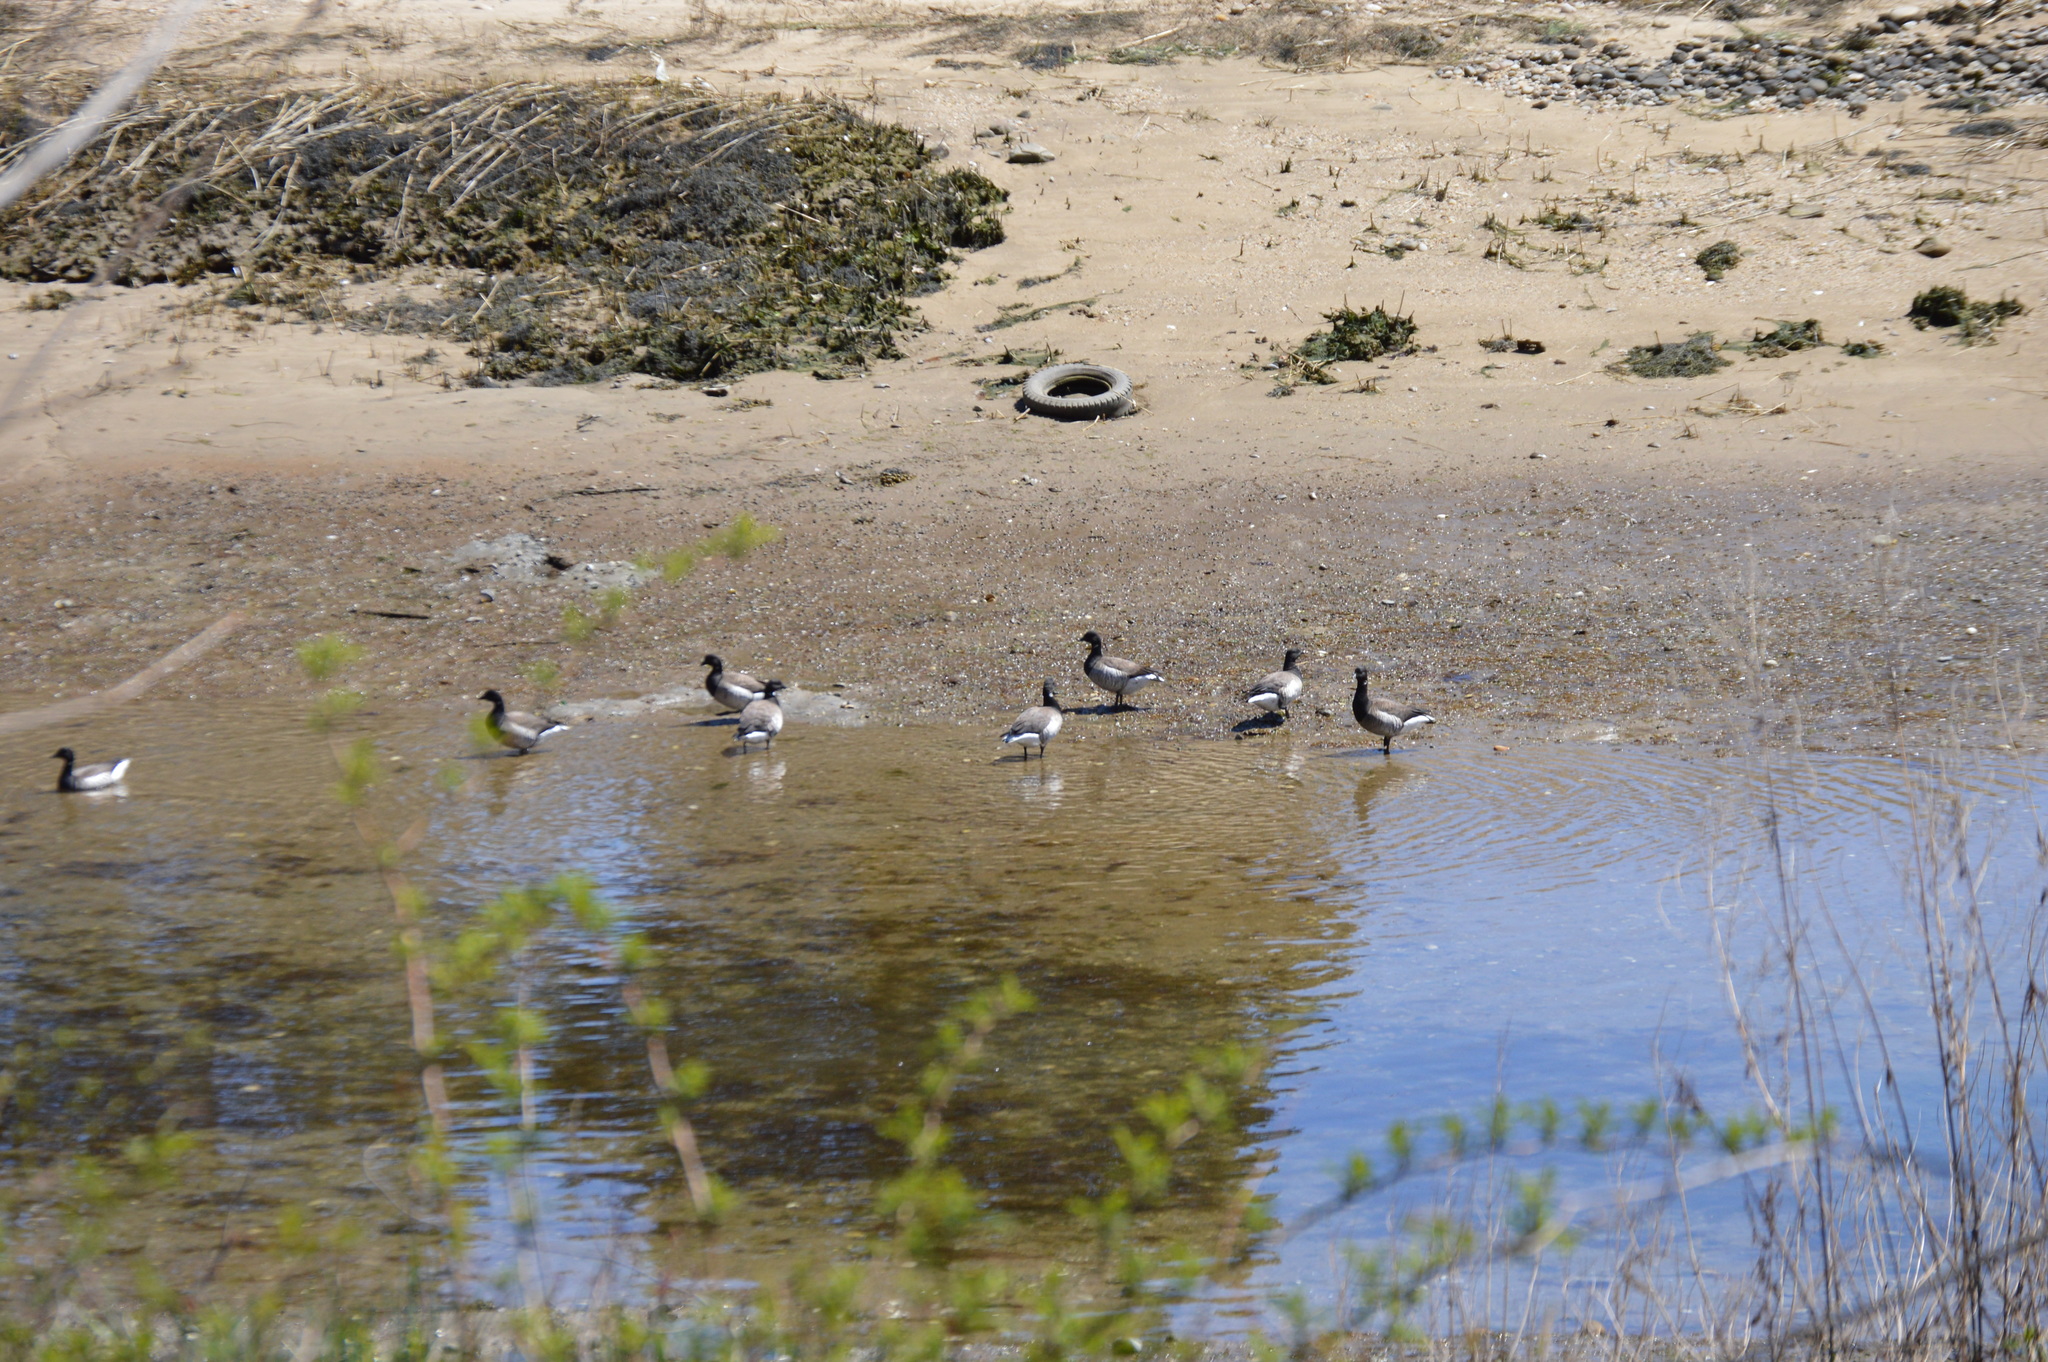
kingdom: Animalia
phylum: Chordata
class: Aves
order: Anseriformes
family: Anatidae
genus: Branta
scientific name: Branta bernicla
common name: Brant goose
